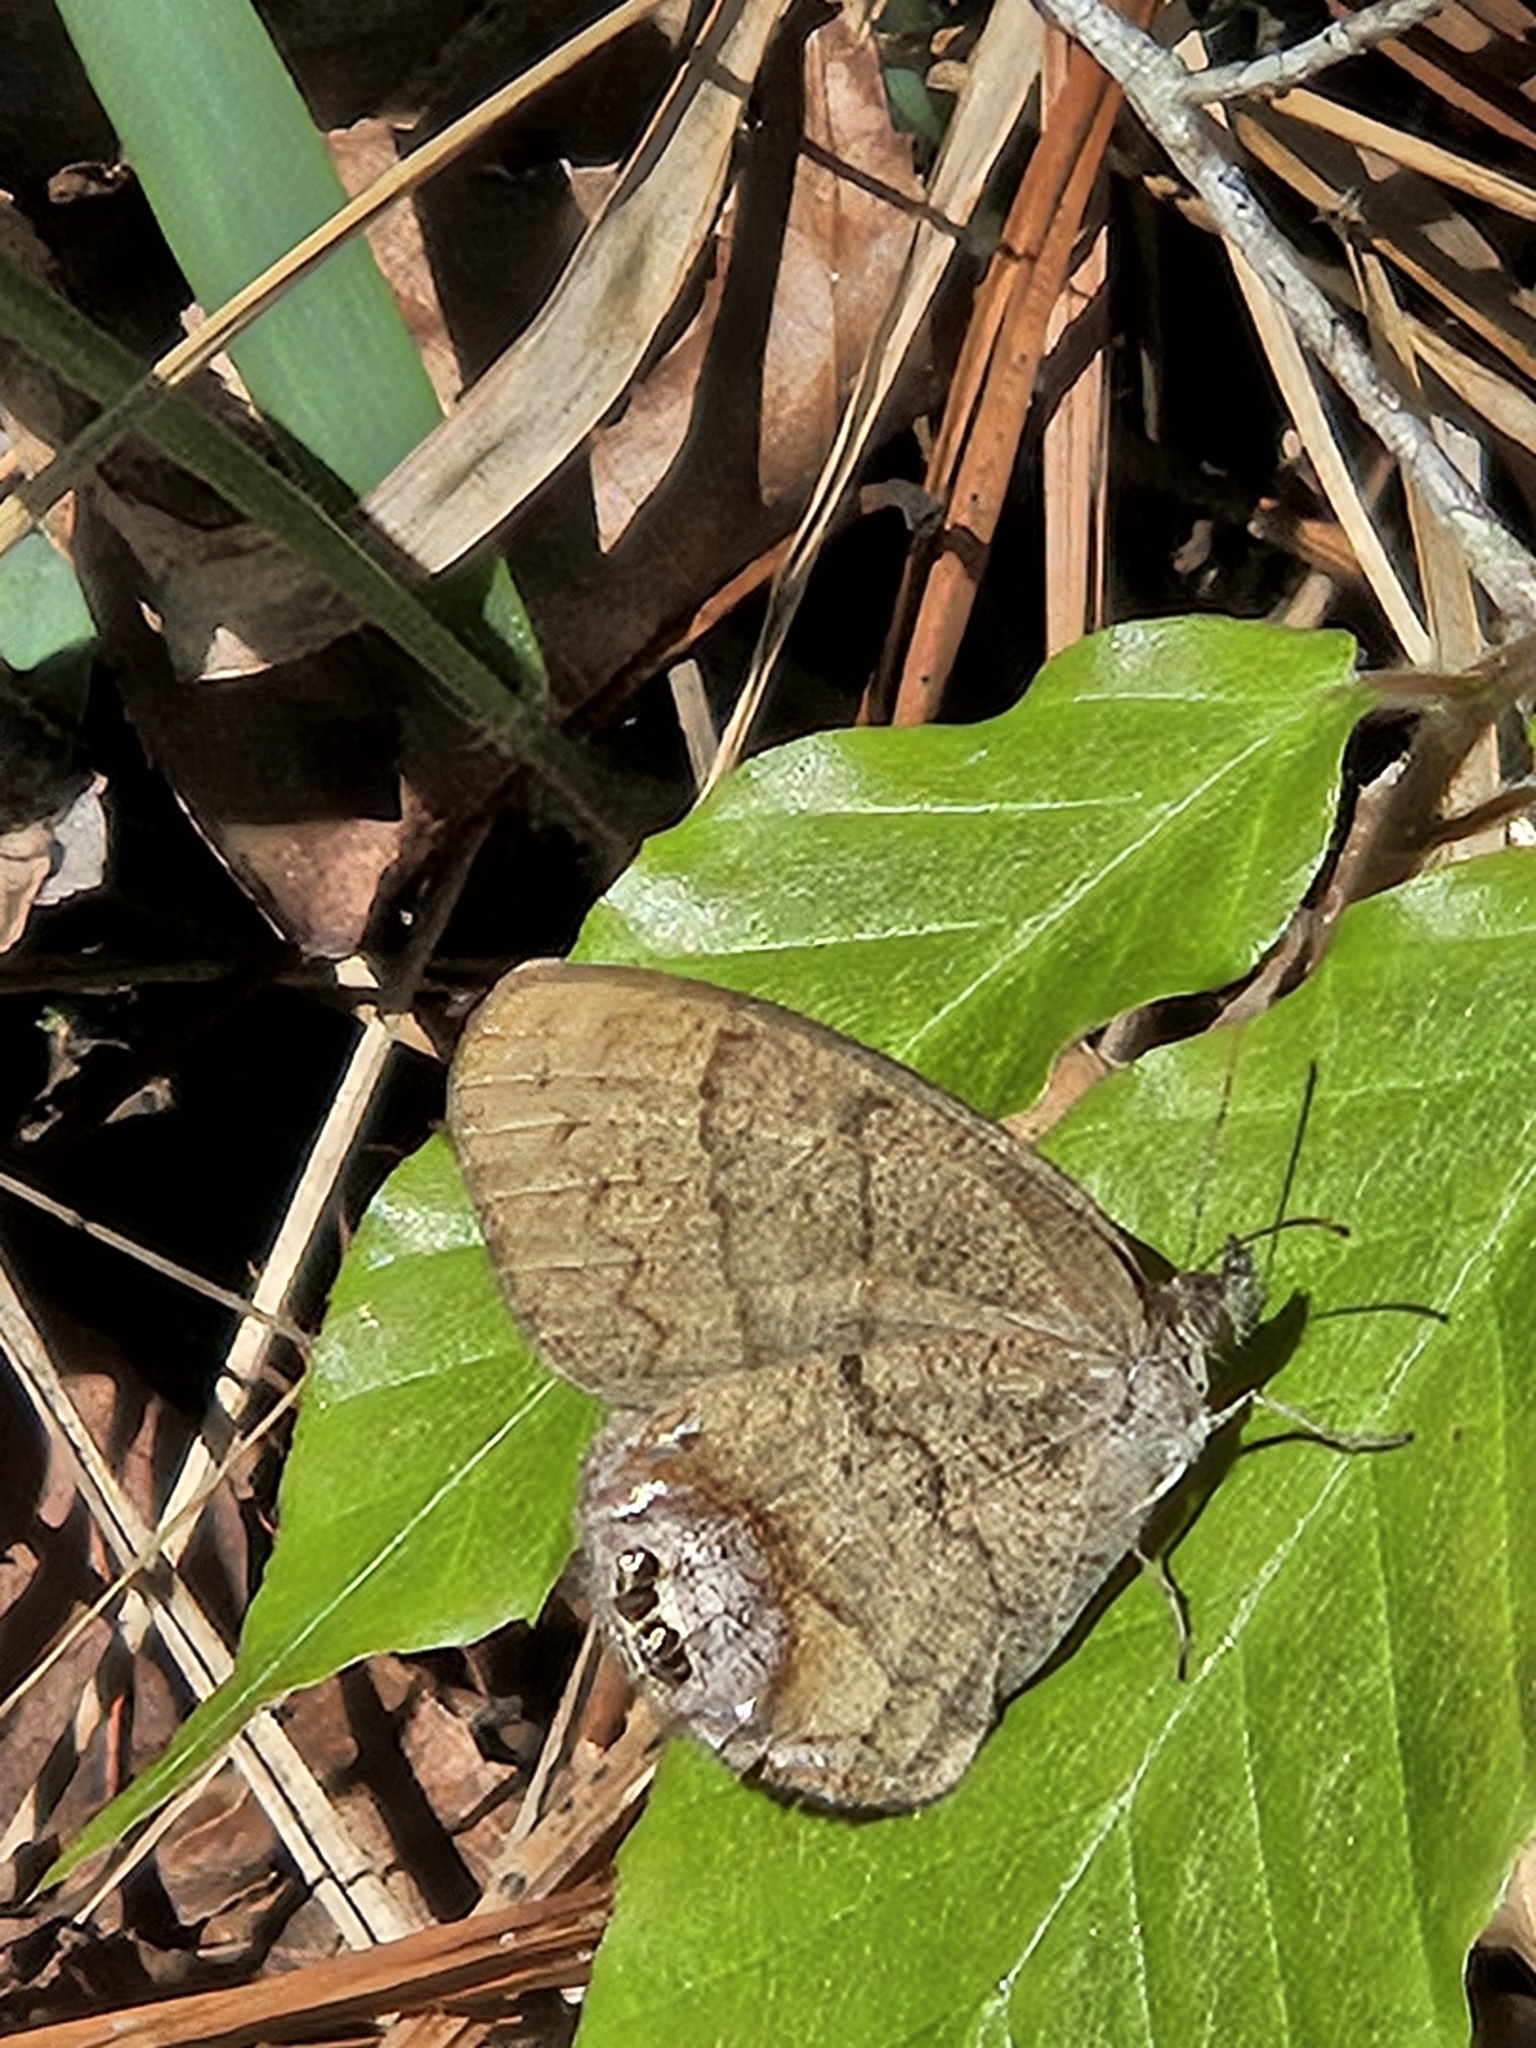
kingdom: Animalia
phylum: Arthropoda
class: Insecta
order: Lepidoptera
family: Nymphalidae
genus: Euptychia
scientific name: Euptychia cornelius
